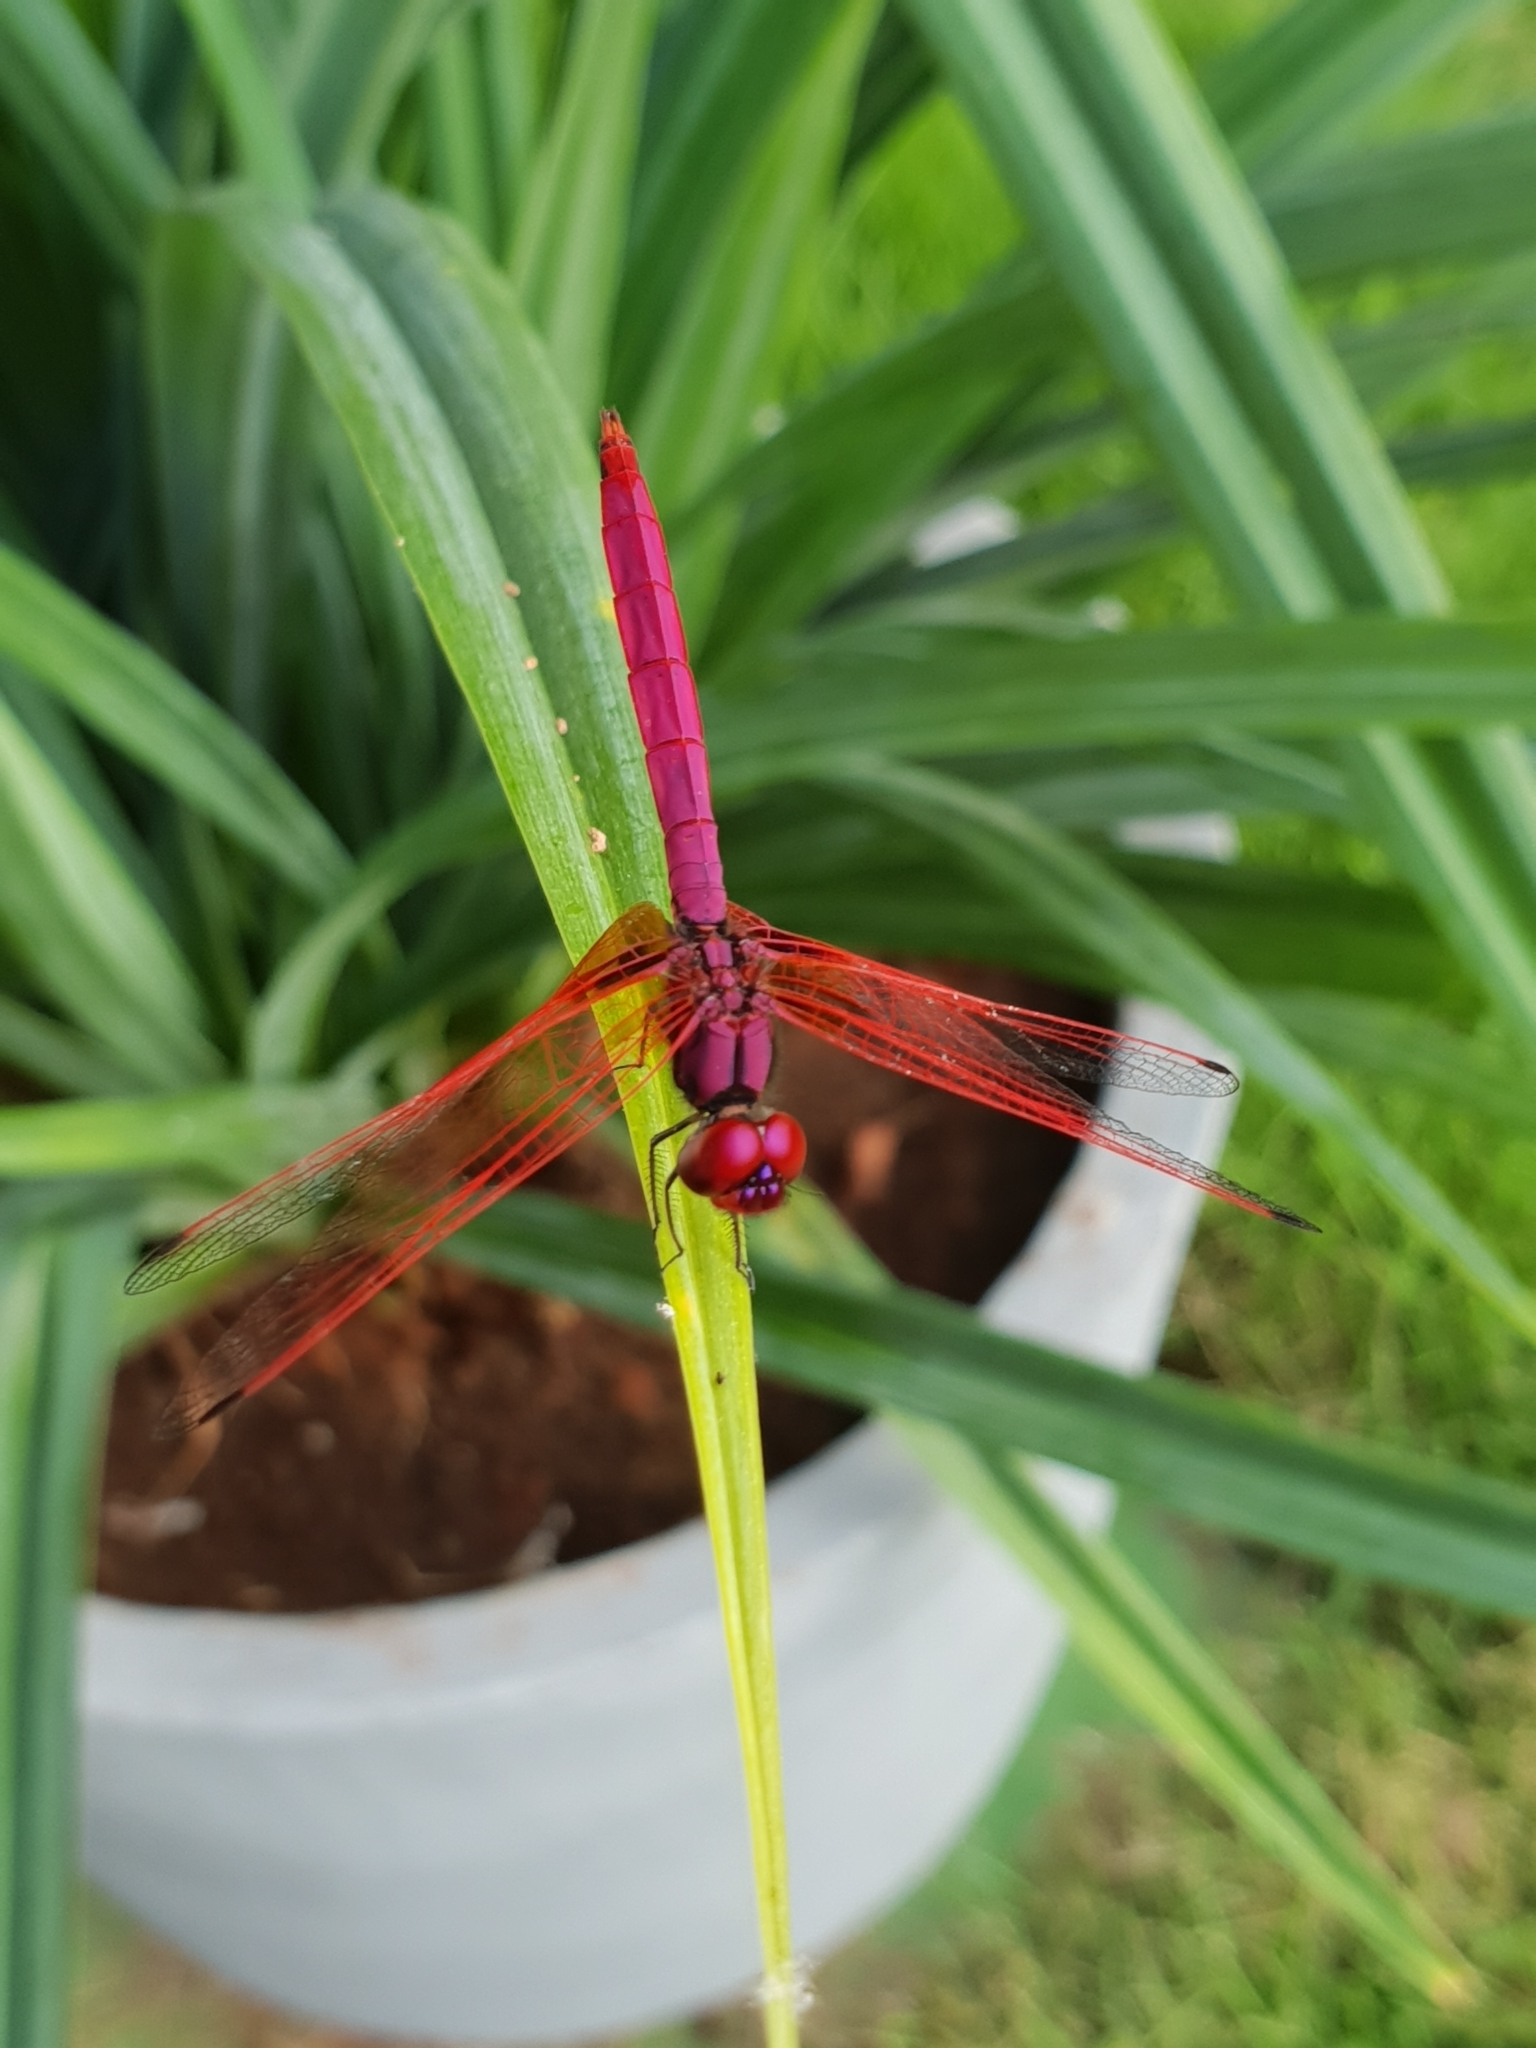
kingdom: Animalia
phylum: Arthropoda
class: Insecta
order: Odonata
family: Libellulidae
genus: Trithemis
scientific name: Trithemis aurora
